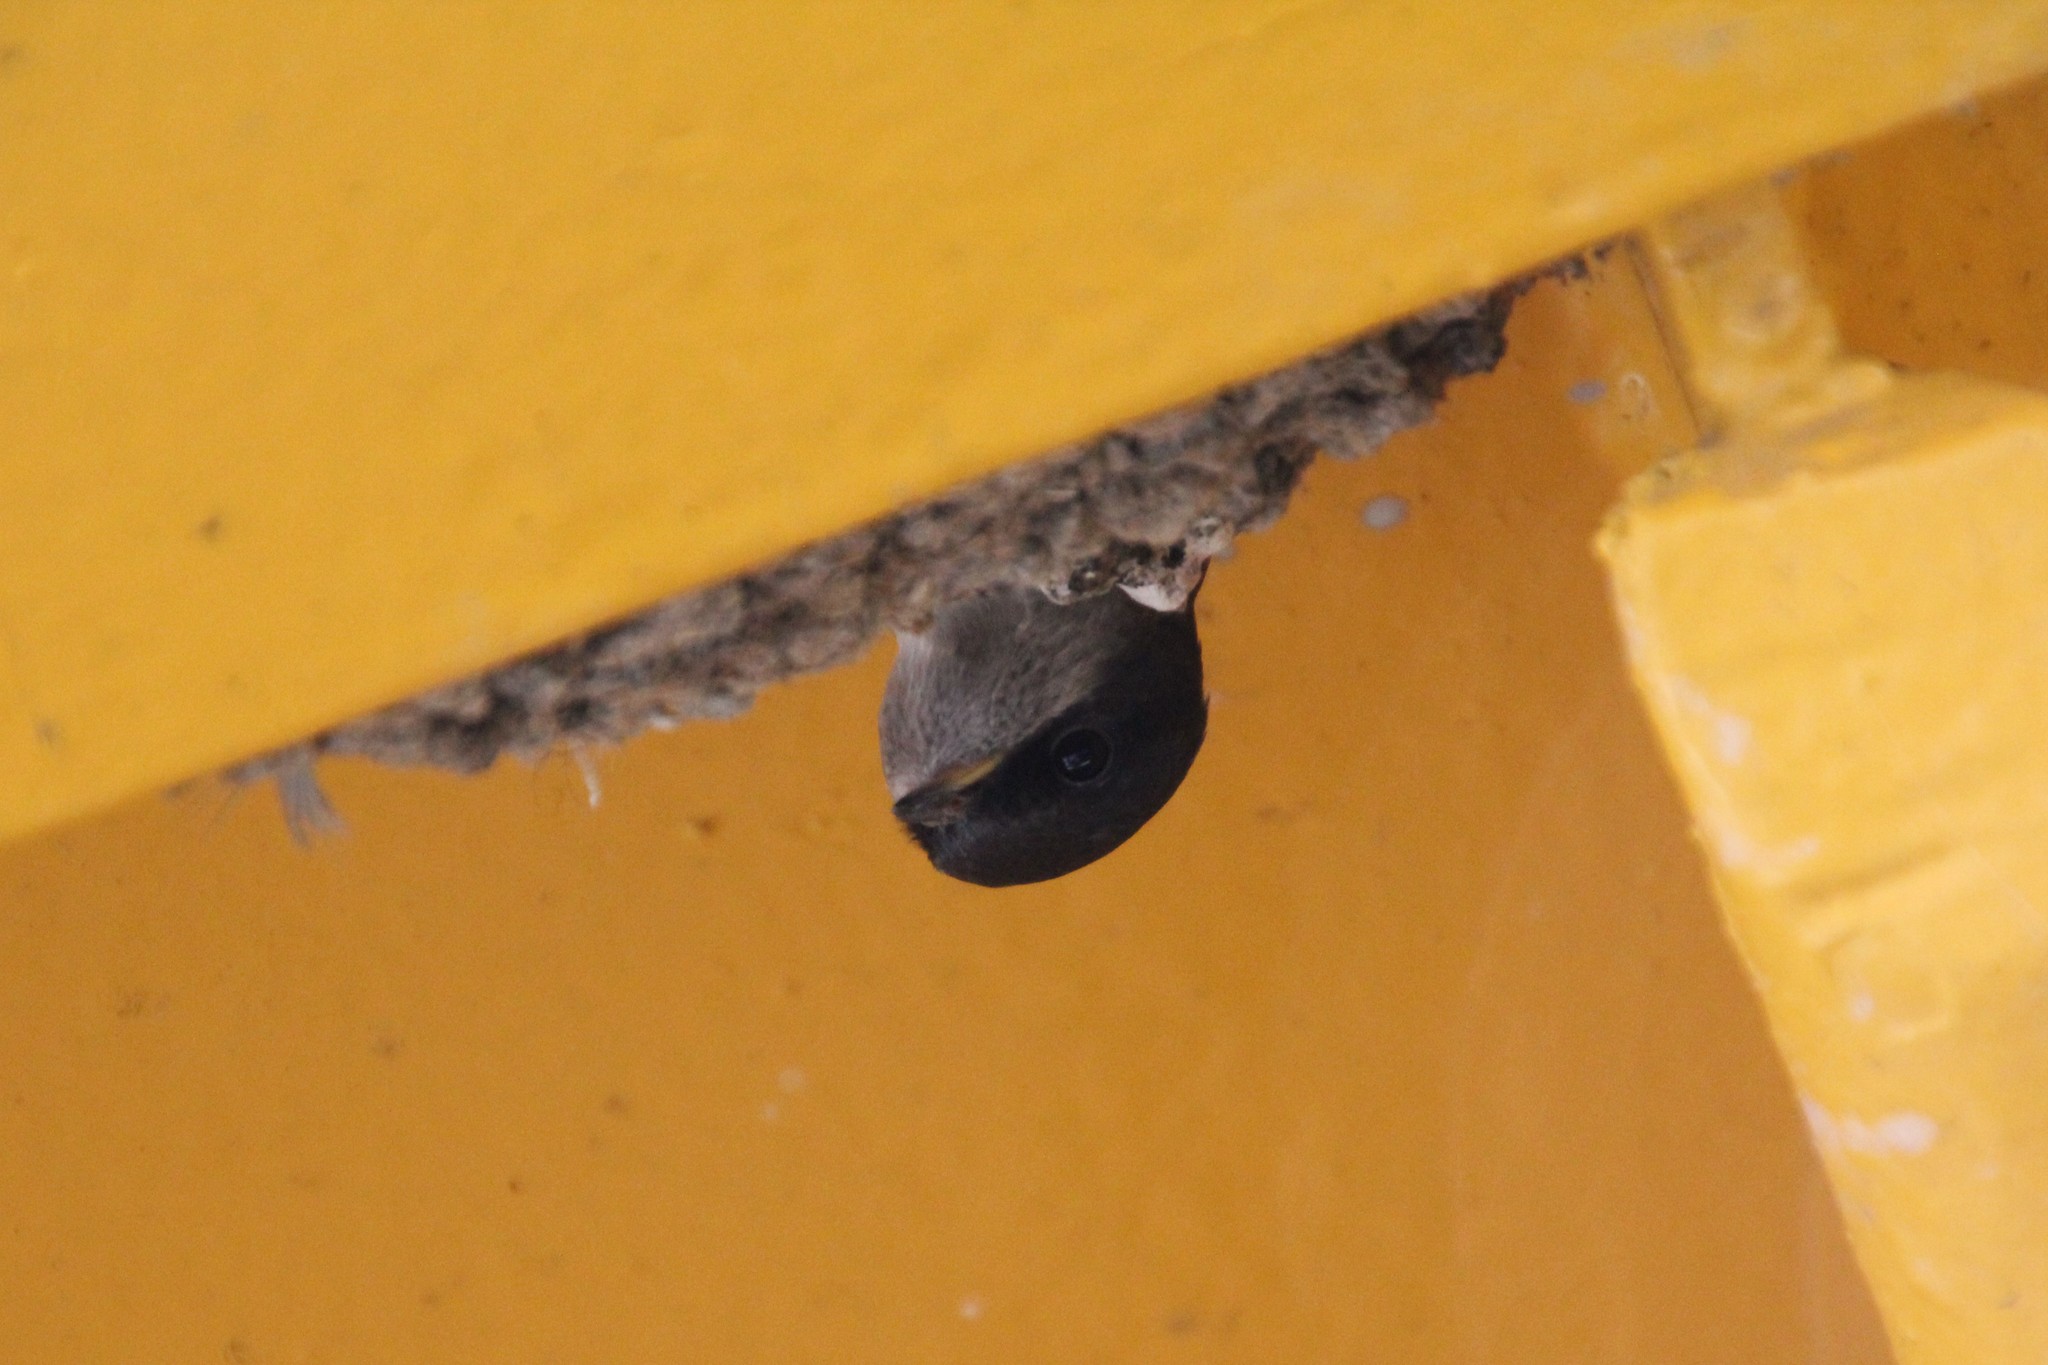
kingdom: Animalia
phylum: Chordata
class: Aves
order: Passeriformes
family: Hirundinidae
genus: Delichon
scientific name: Delichon urbicum
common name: Common house martin
